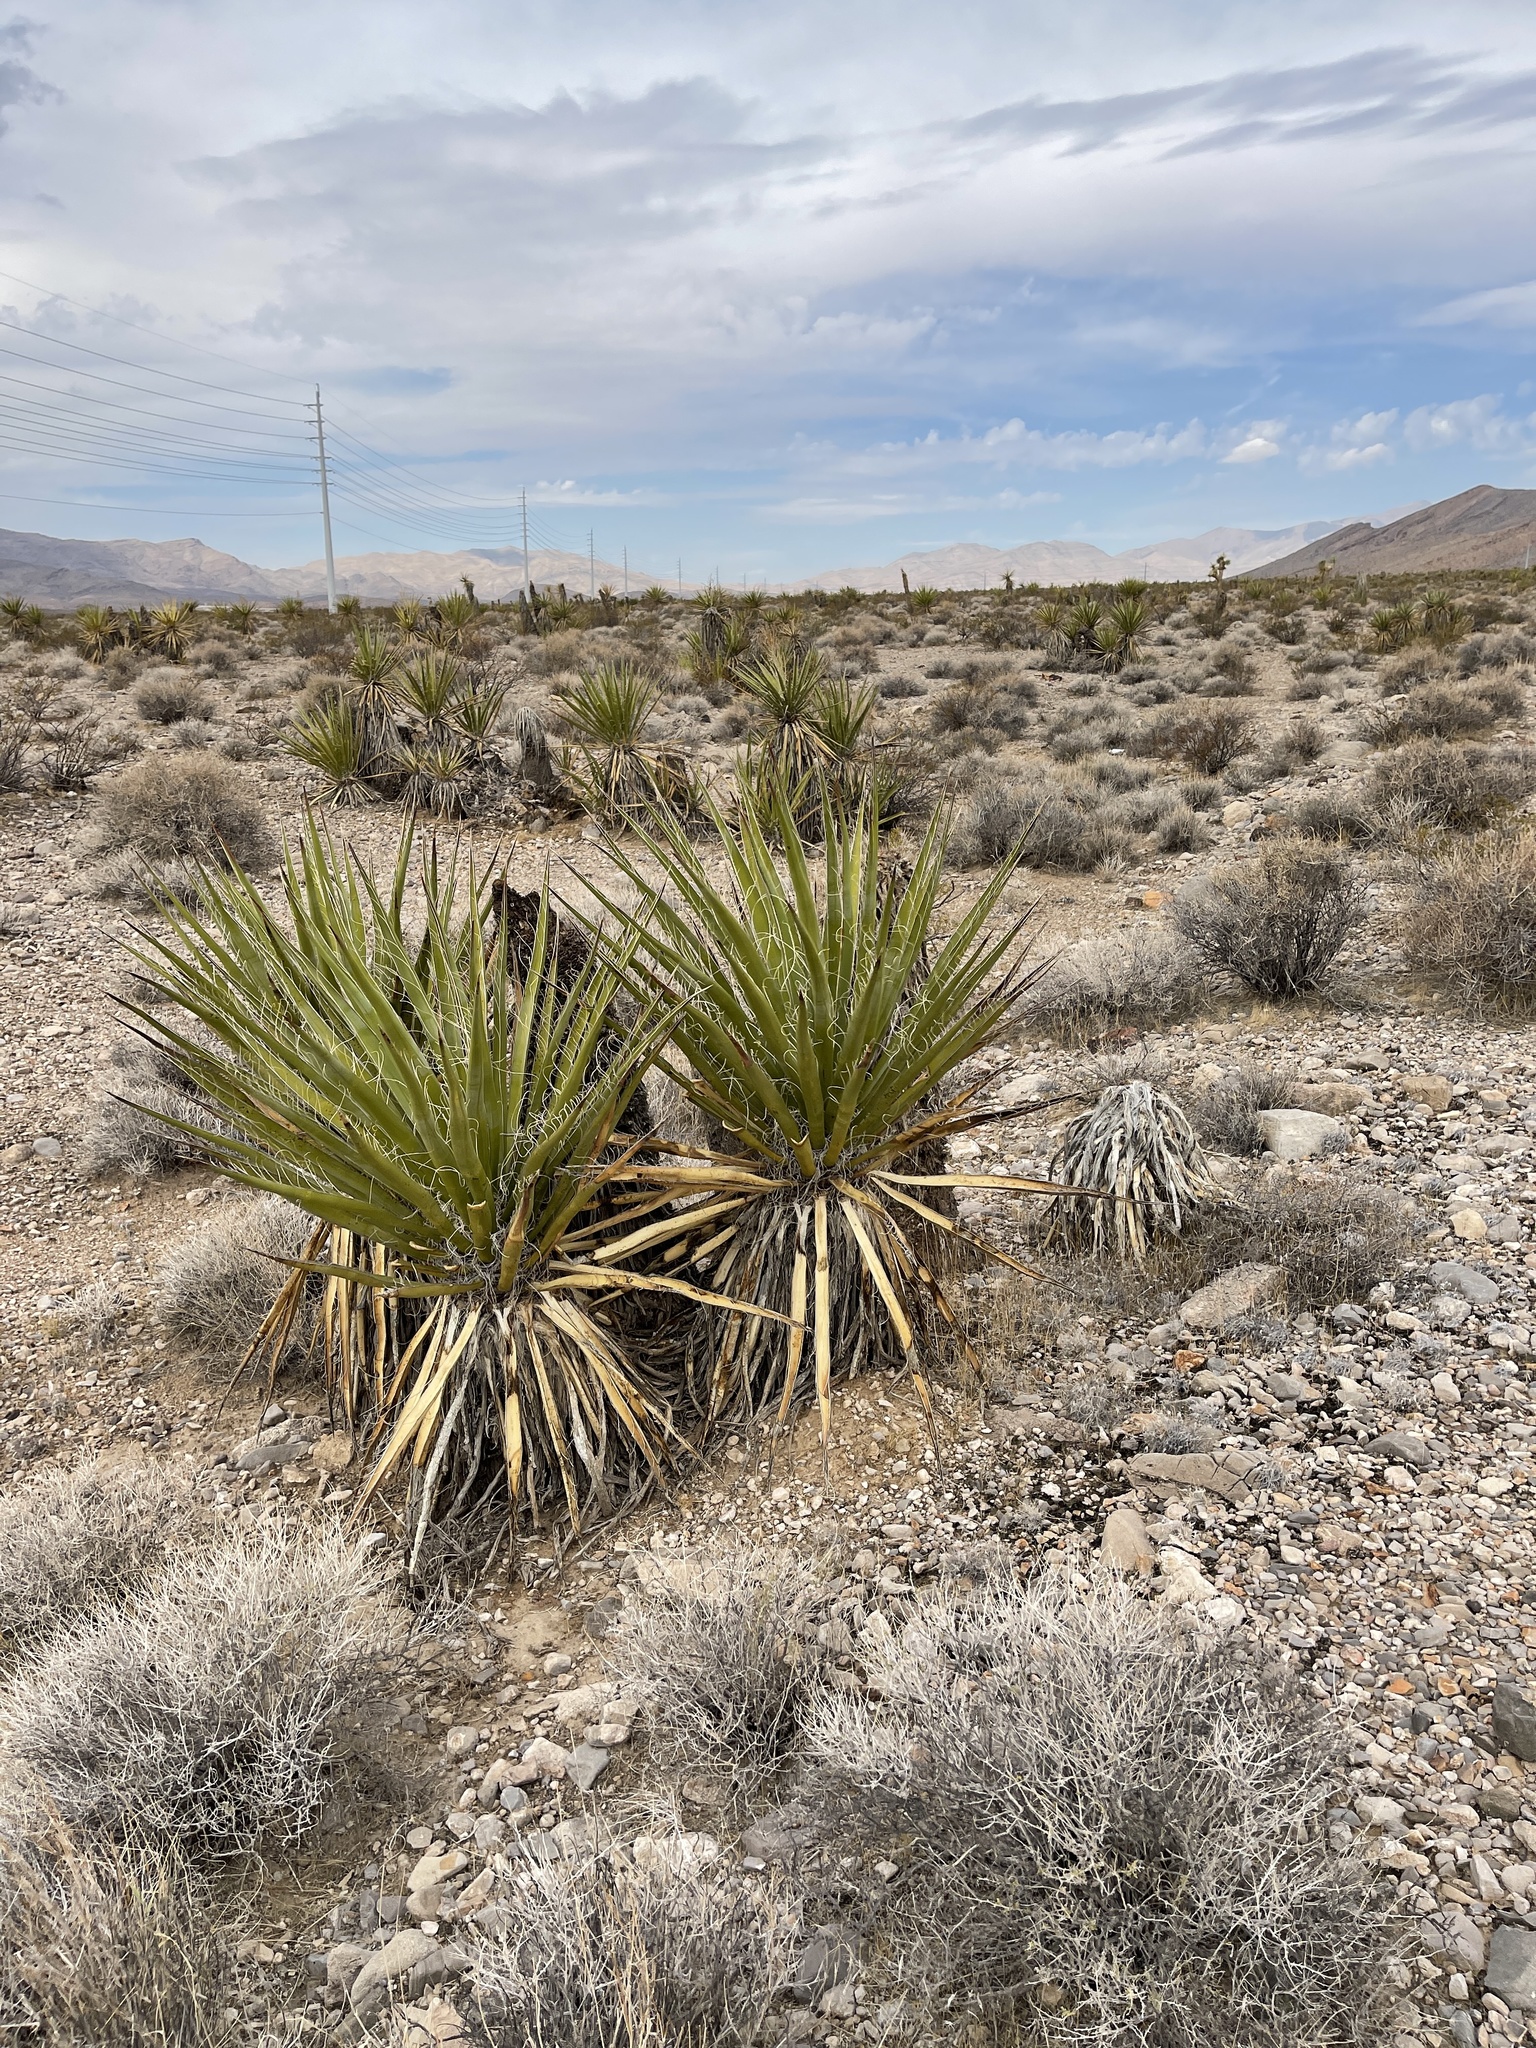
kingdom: Plantae
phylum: Tracheophyta
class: Liliopsida
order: Asparagales
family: Asparagaceae
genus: Yucca
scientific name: Yucca schidigera
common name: Mojave yucca
